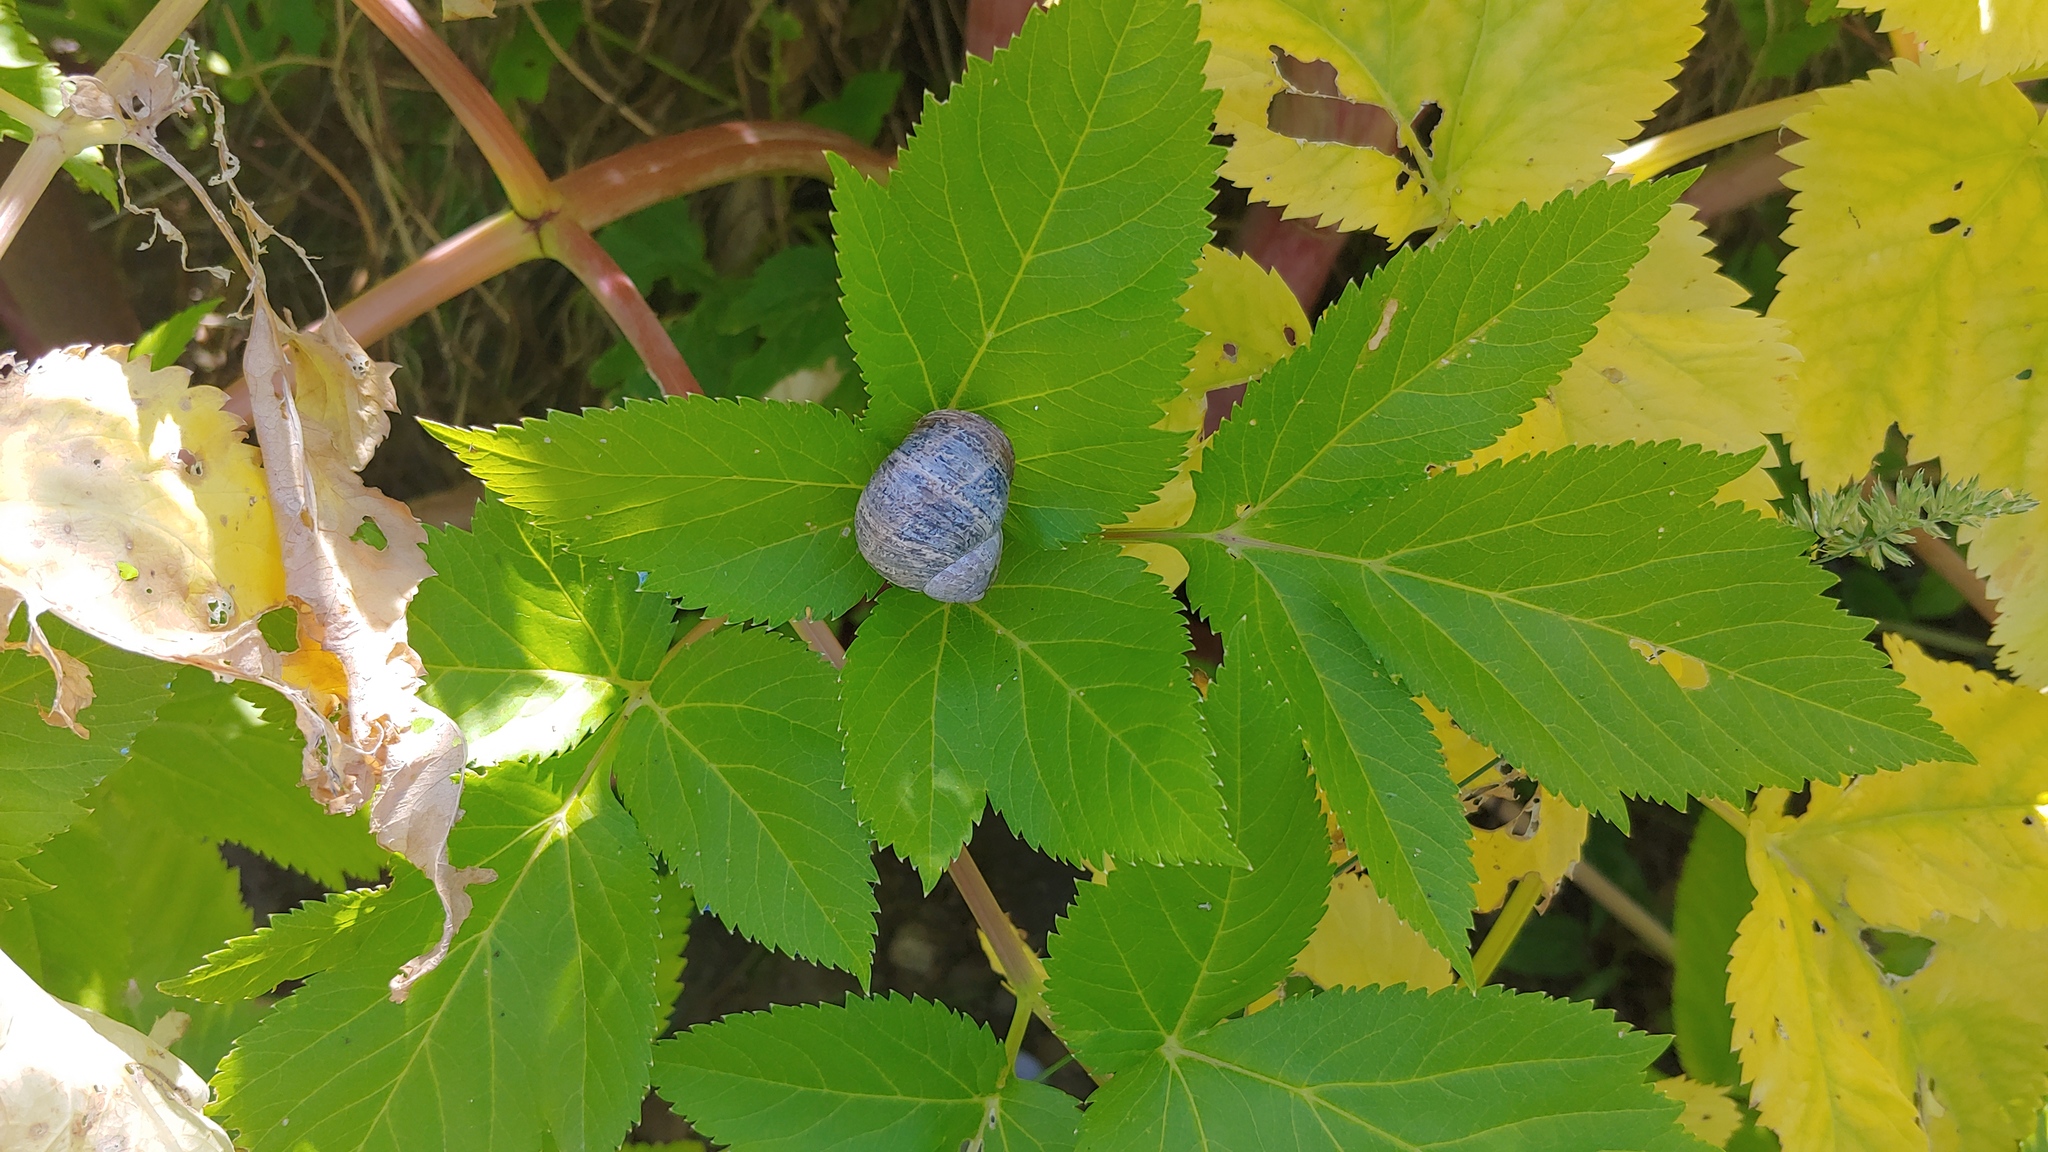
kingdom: Animalia
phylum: Mollusca
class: Gastropoda
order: Stylommatophora
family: Helicidae
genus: Cornu
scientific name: Cornu aspersum
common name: Brown garden snail
